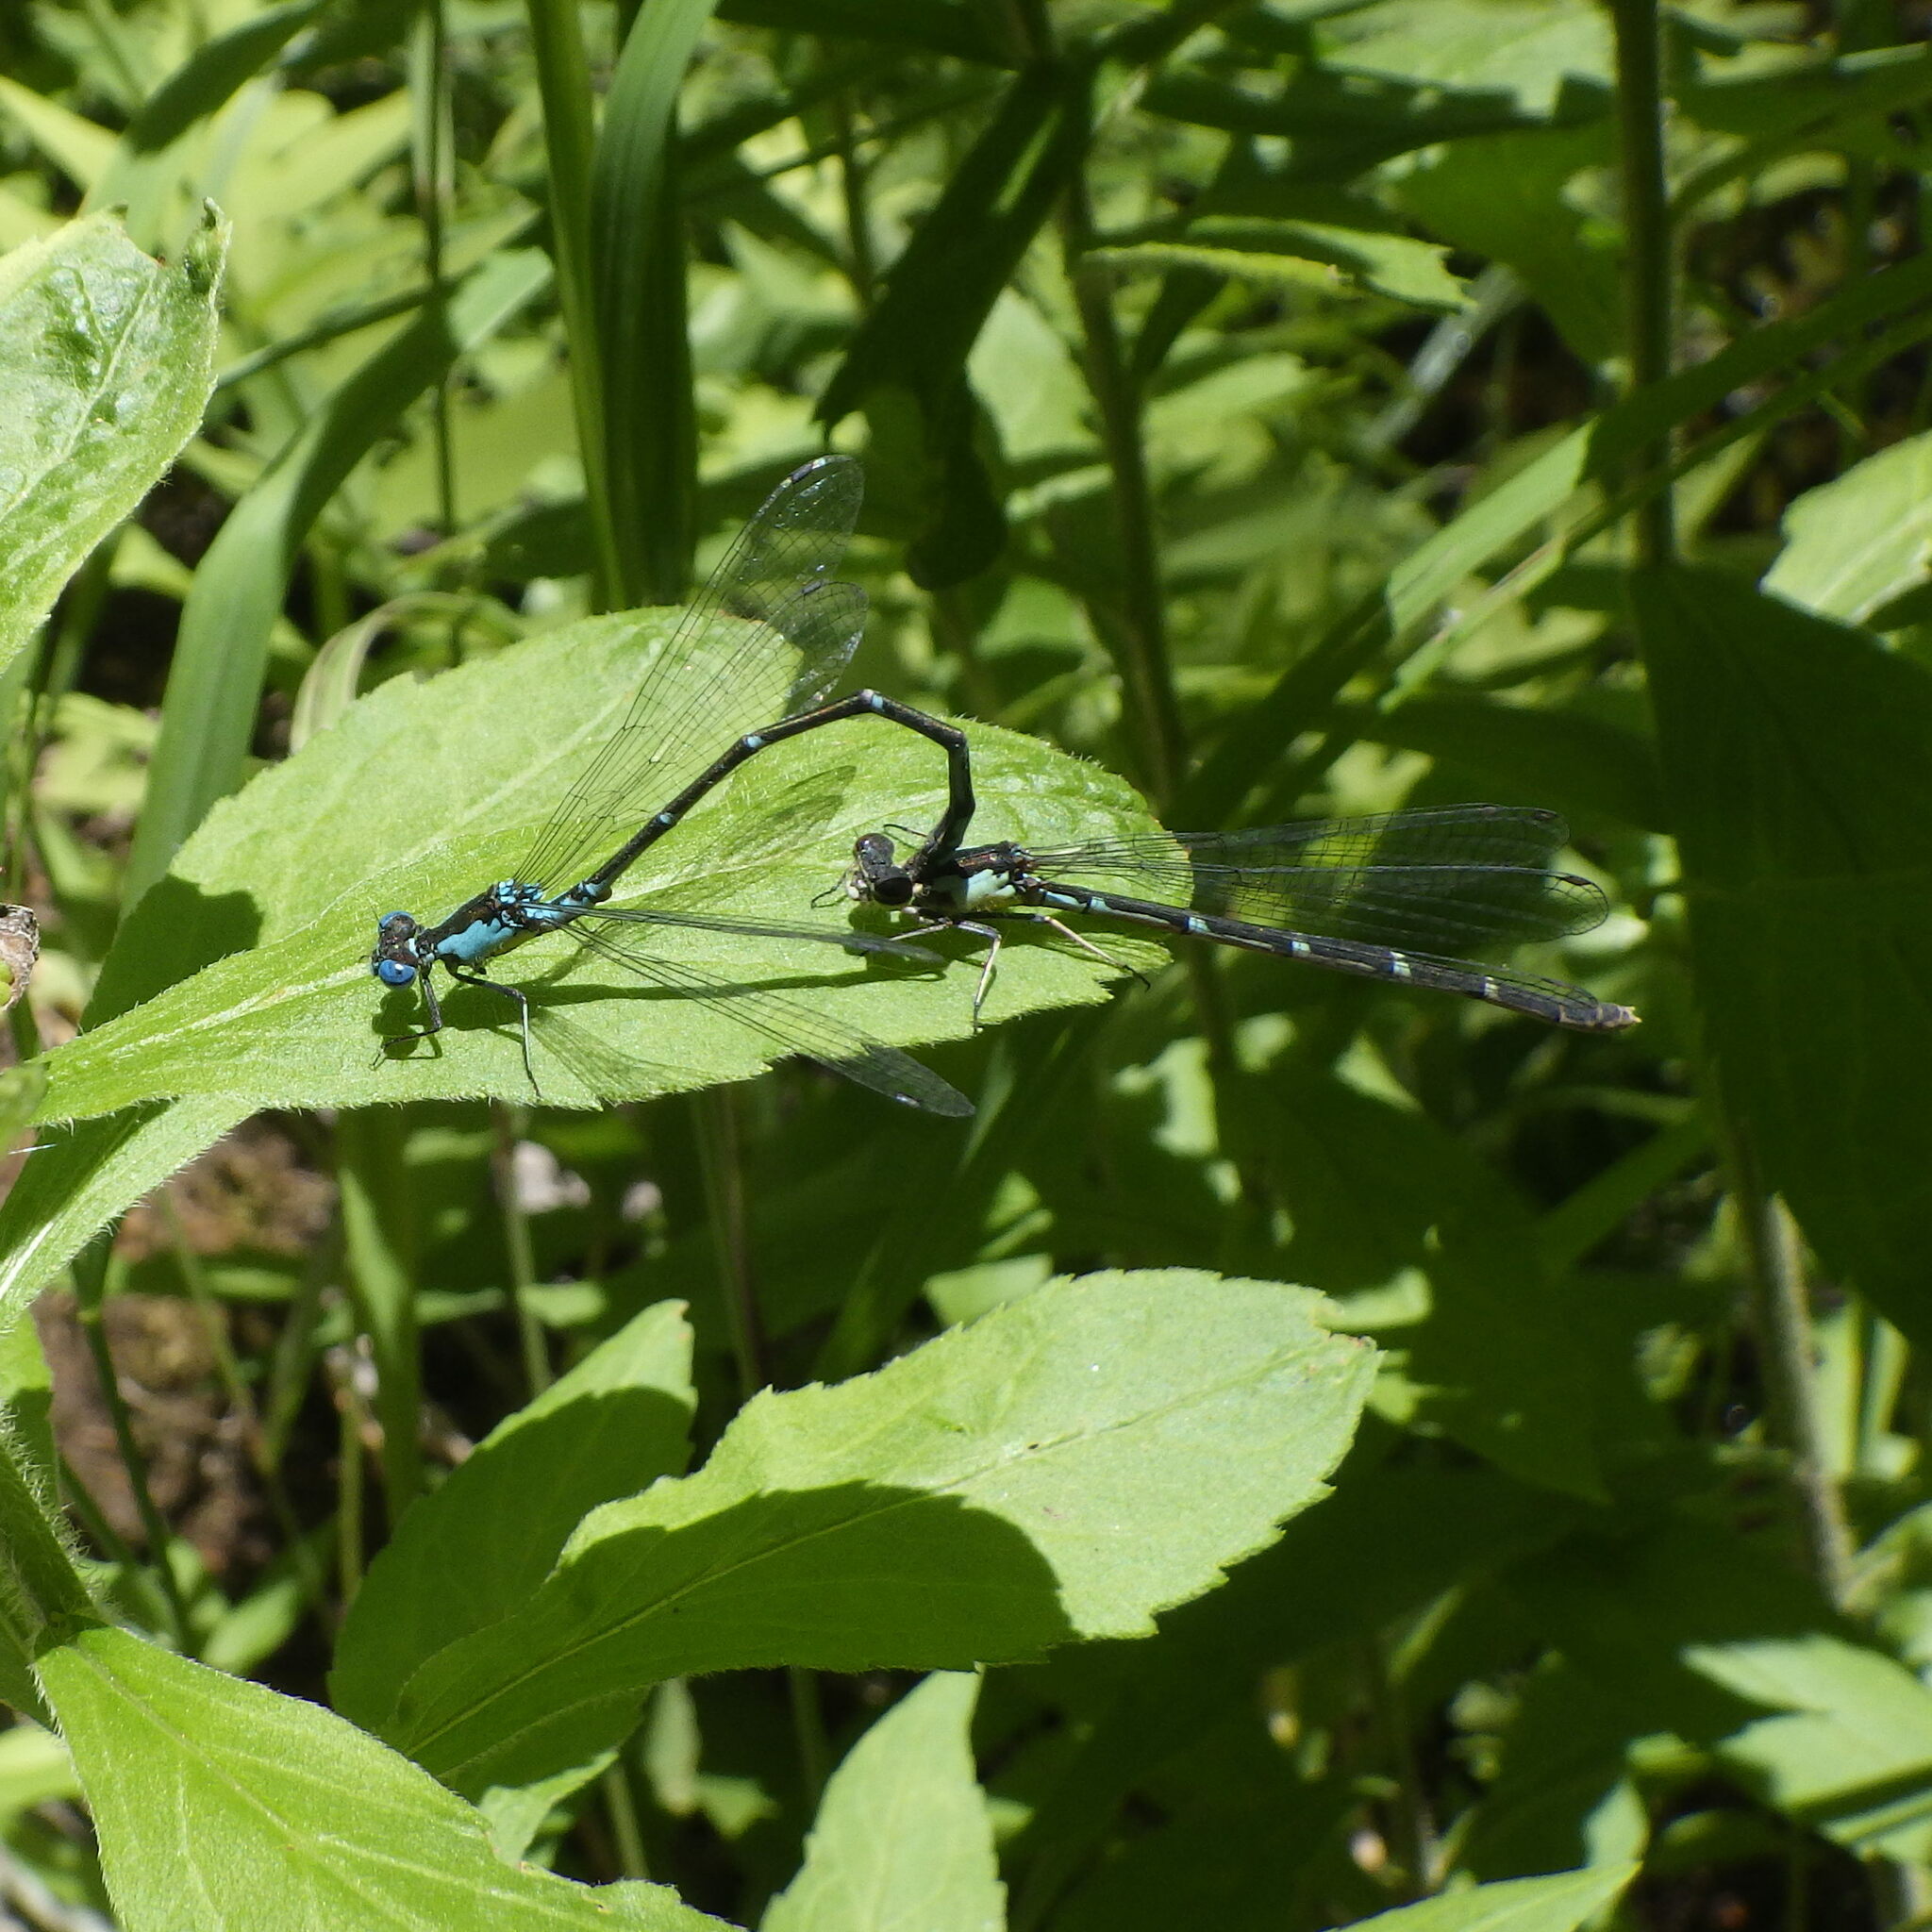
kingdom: Animalia
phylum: Arthropoda
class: Insecta
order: Odonata
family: Coenagrionidae
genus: Chromagrion
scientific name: Chromagrion conditum
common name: Aurora damsel
